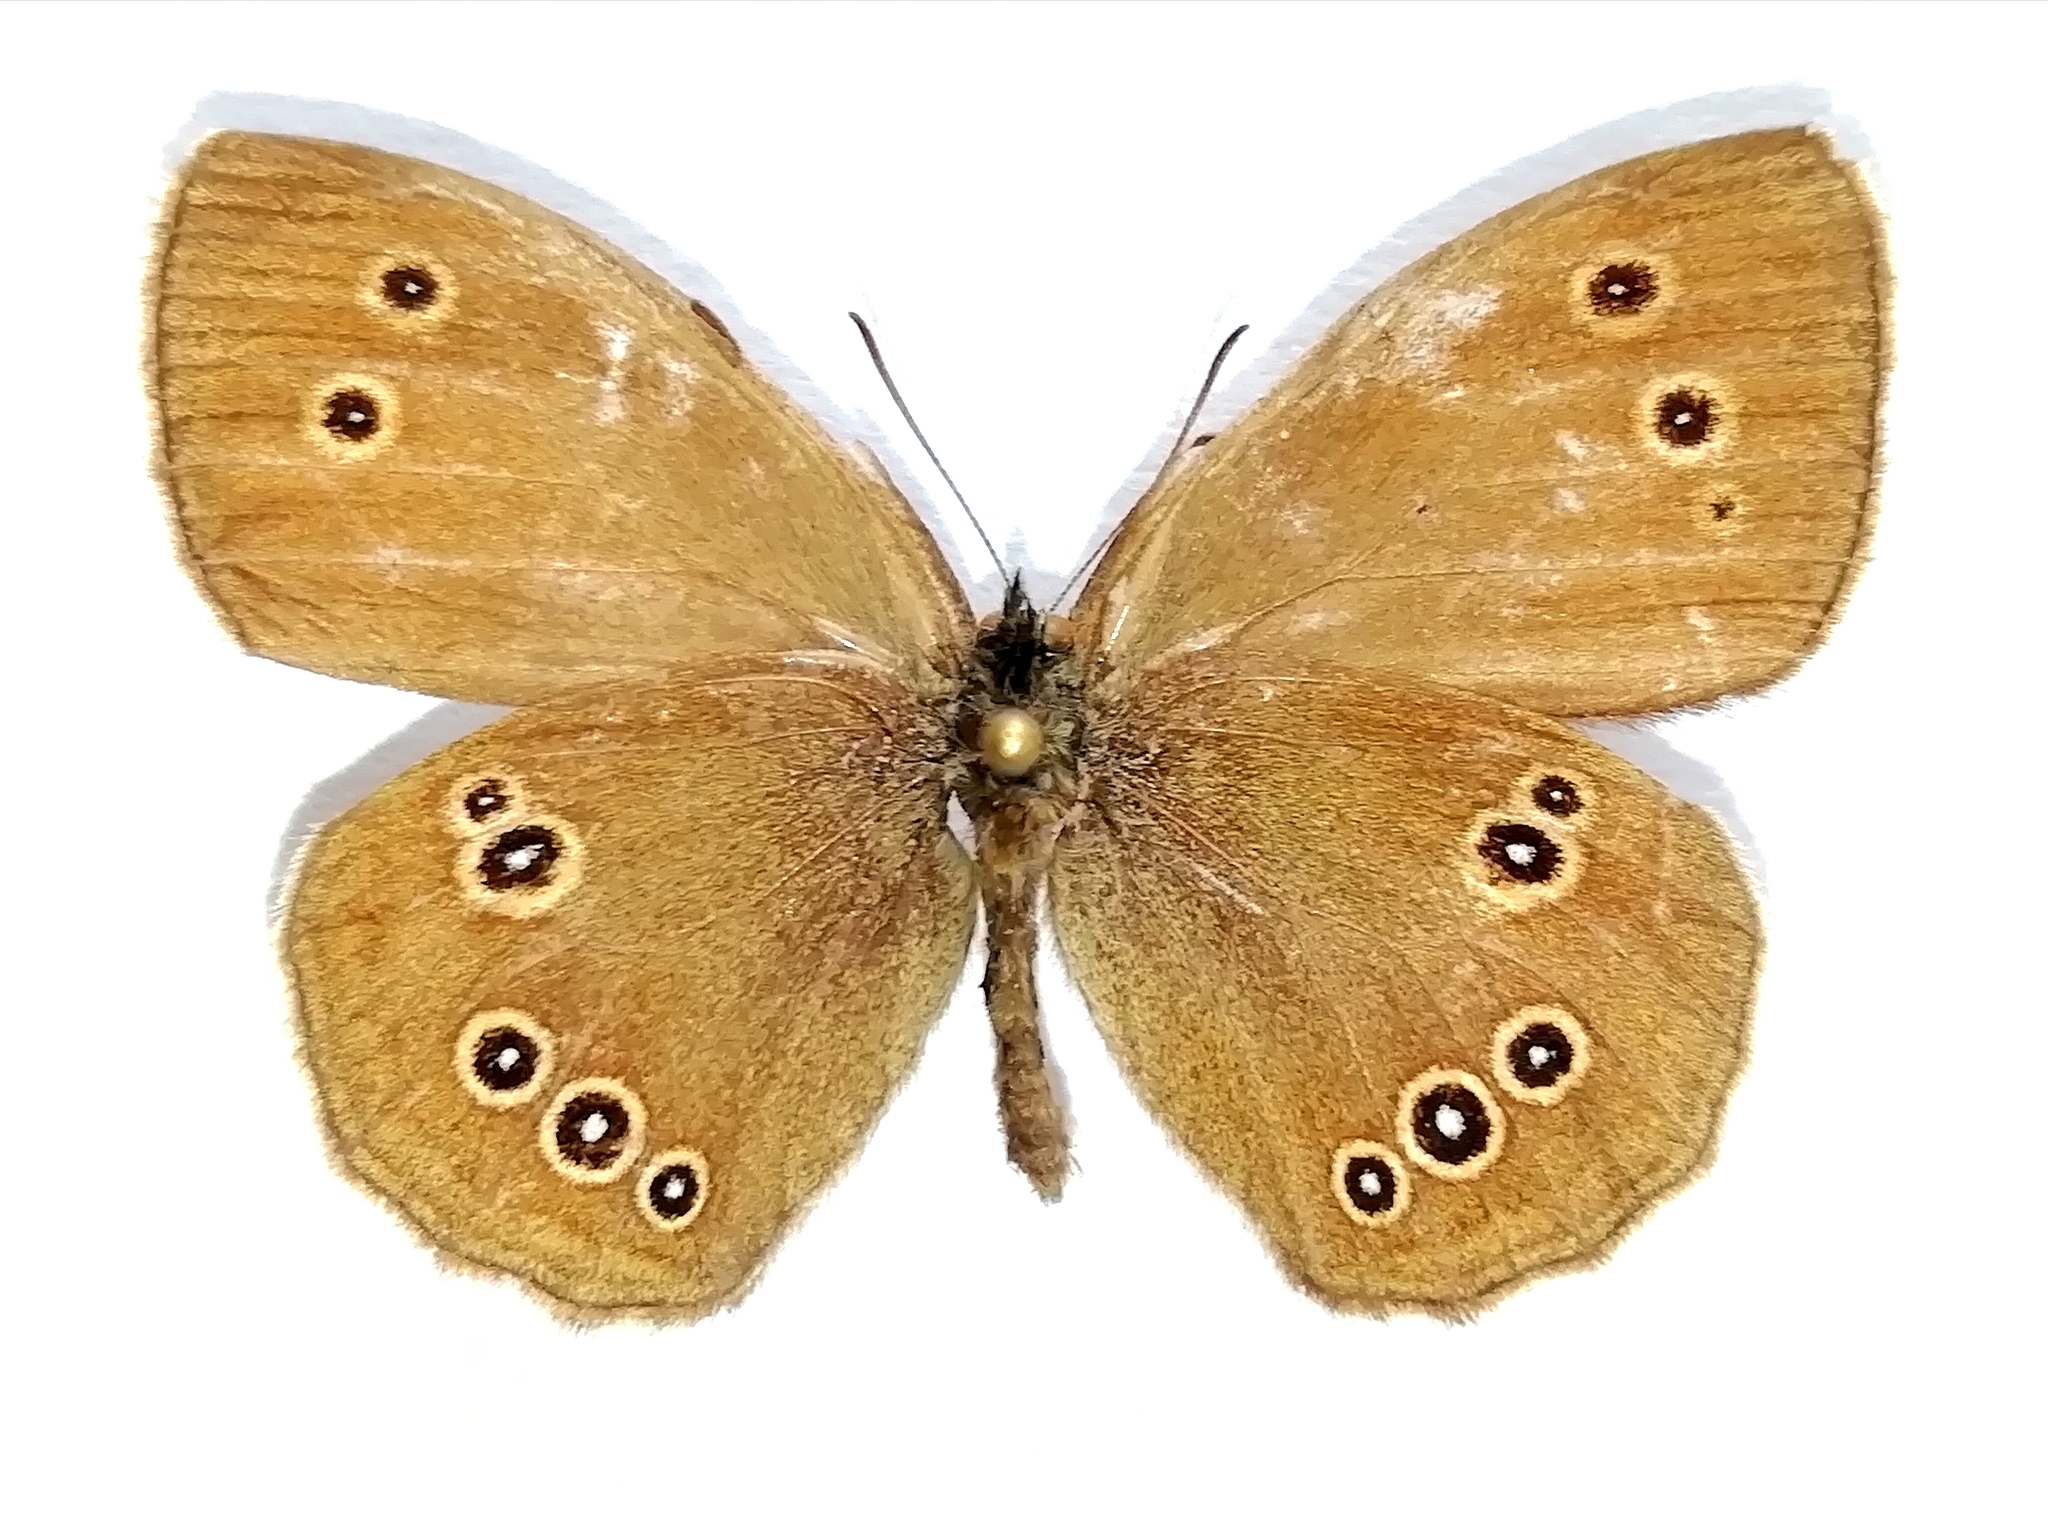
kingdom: Animalia
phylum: Arthropoda
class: Insecta
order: Lepidoptera
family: Nymphalidae
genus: Aphantopus
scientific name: Aphantopus hyperantus
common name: Ringlet
